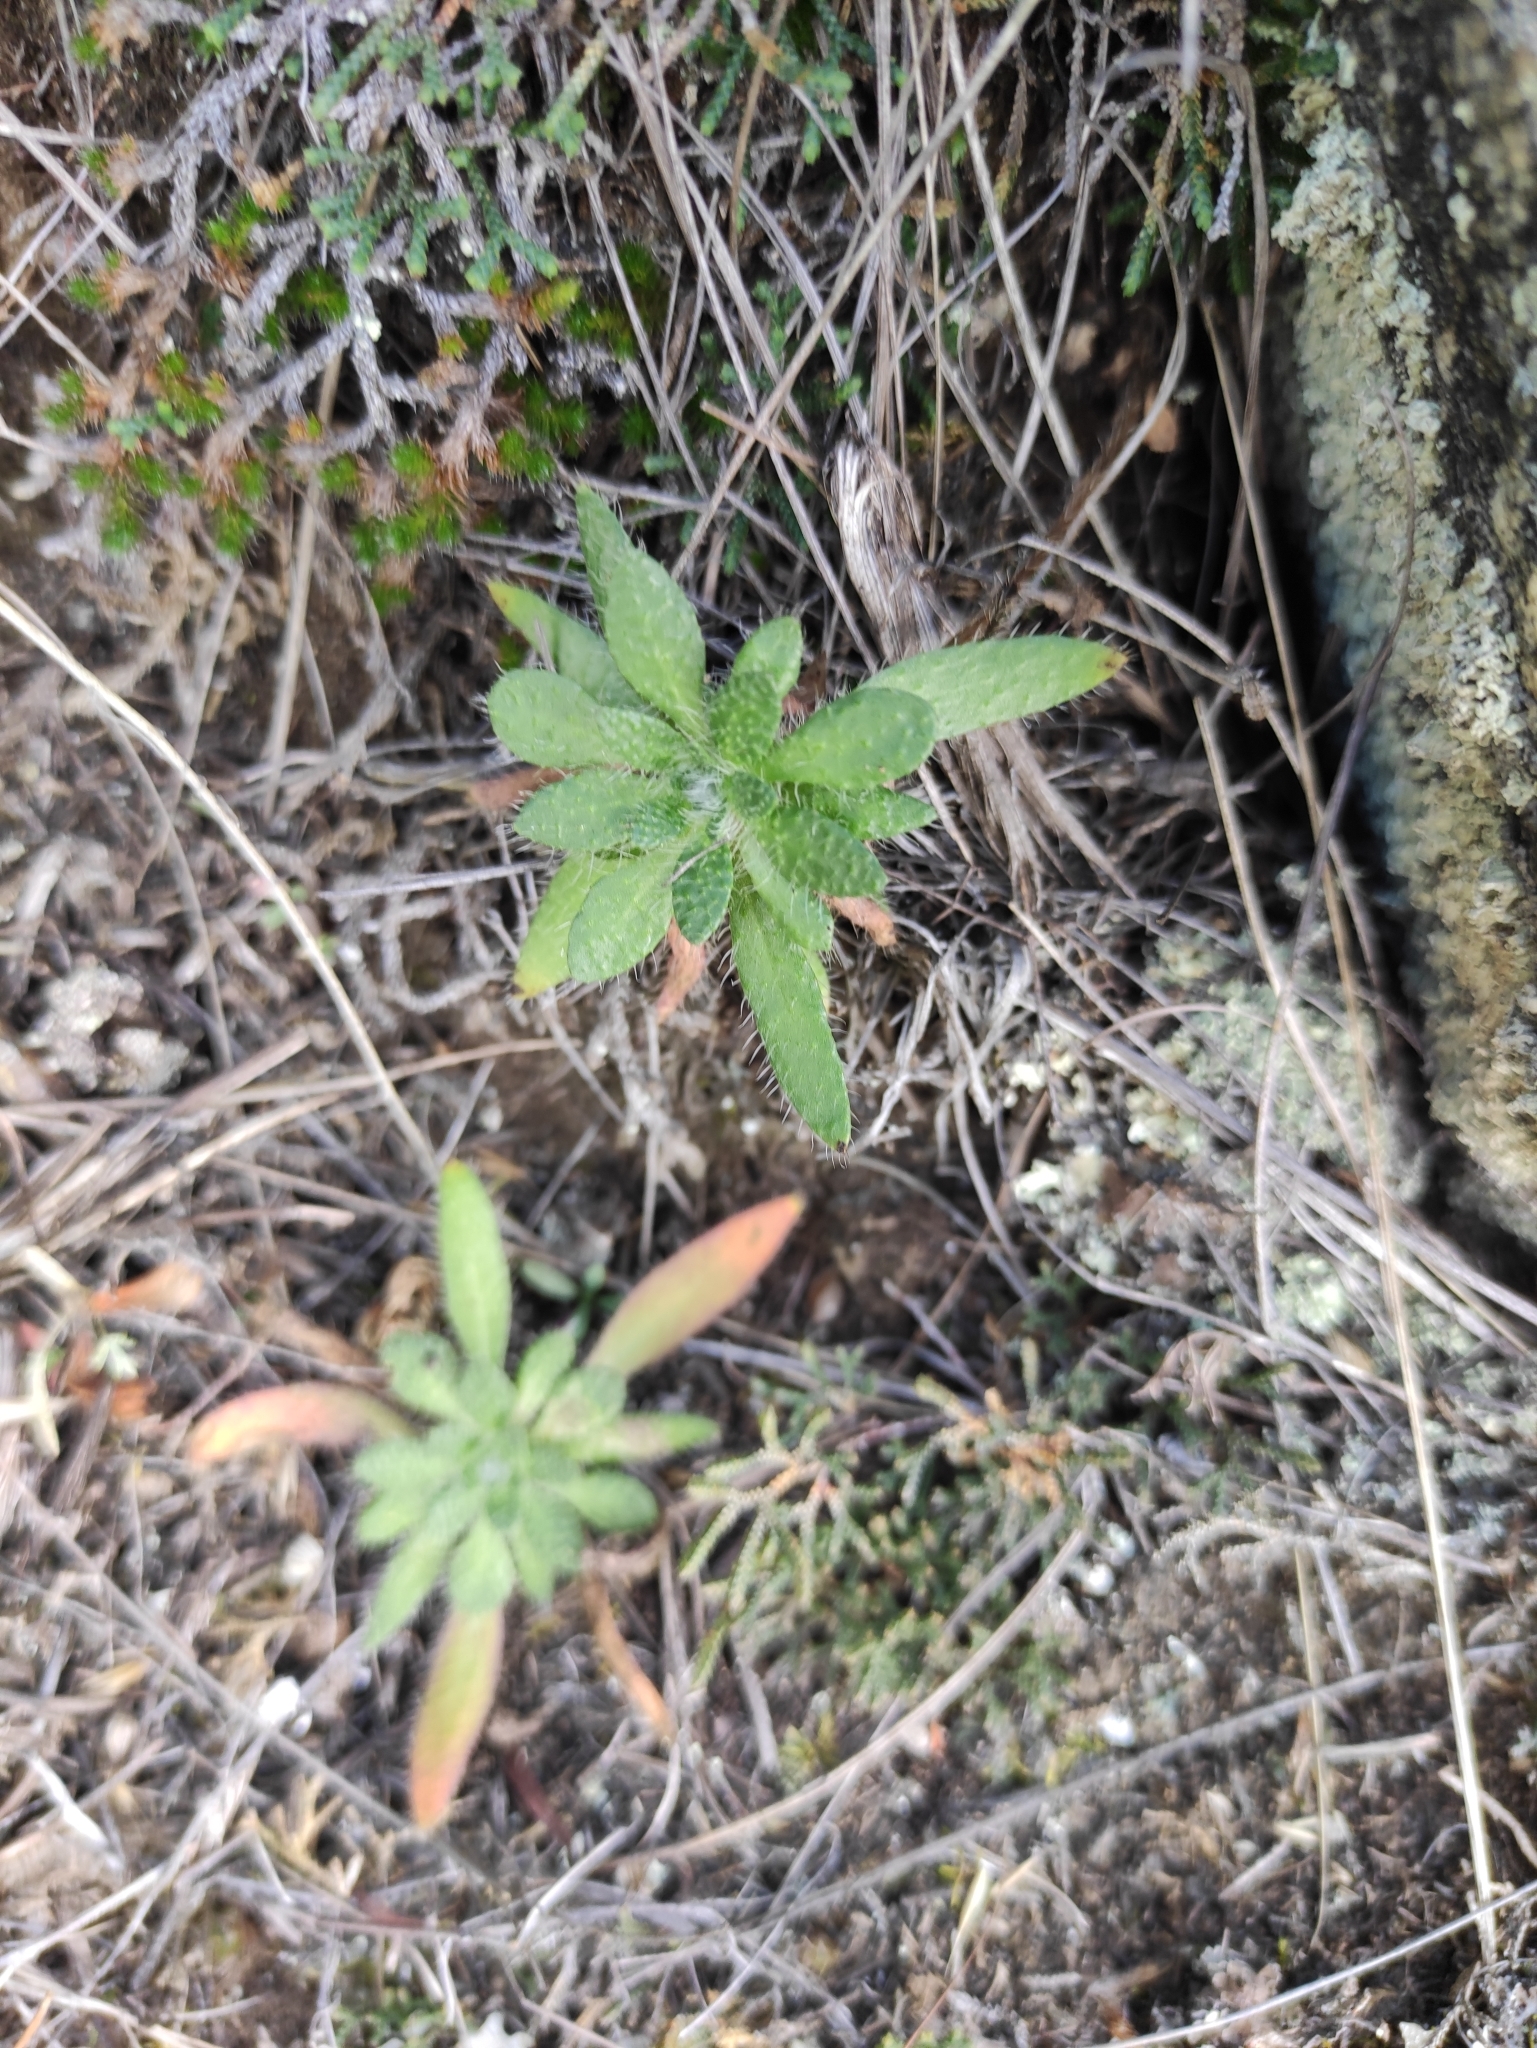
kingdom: Plantae
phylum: Tracheophyta
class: Magnoliopsida
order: Brassicales
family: Brassicaceae
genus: Clausia
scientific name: Clausia aprica
